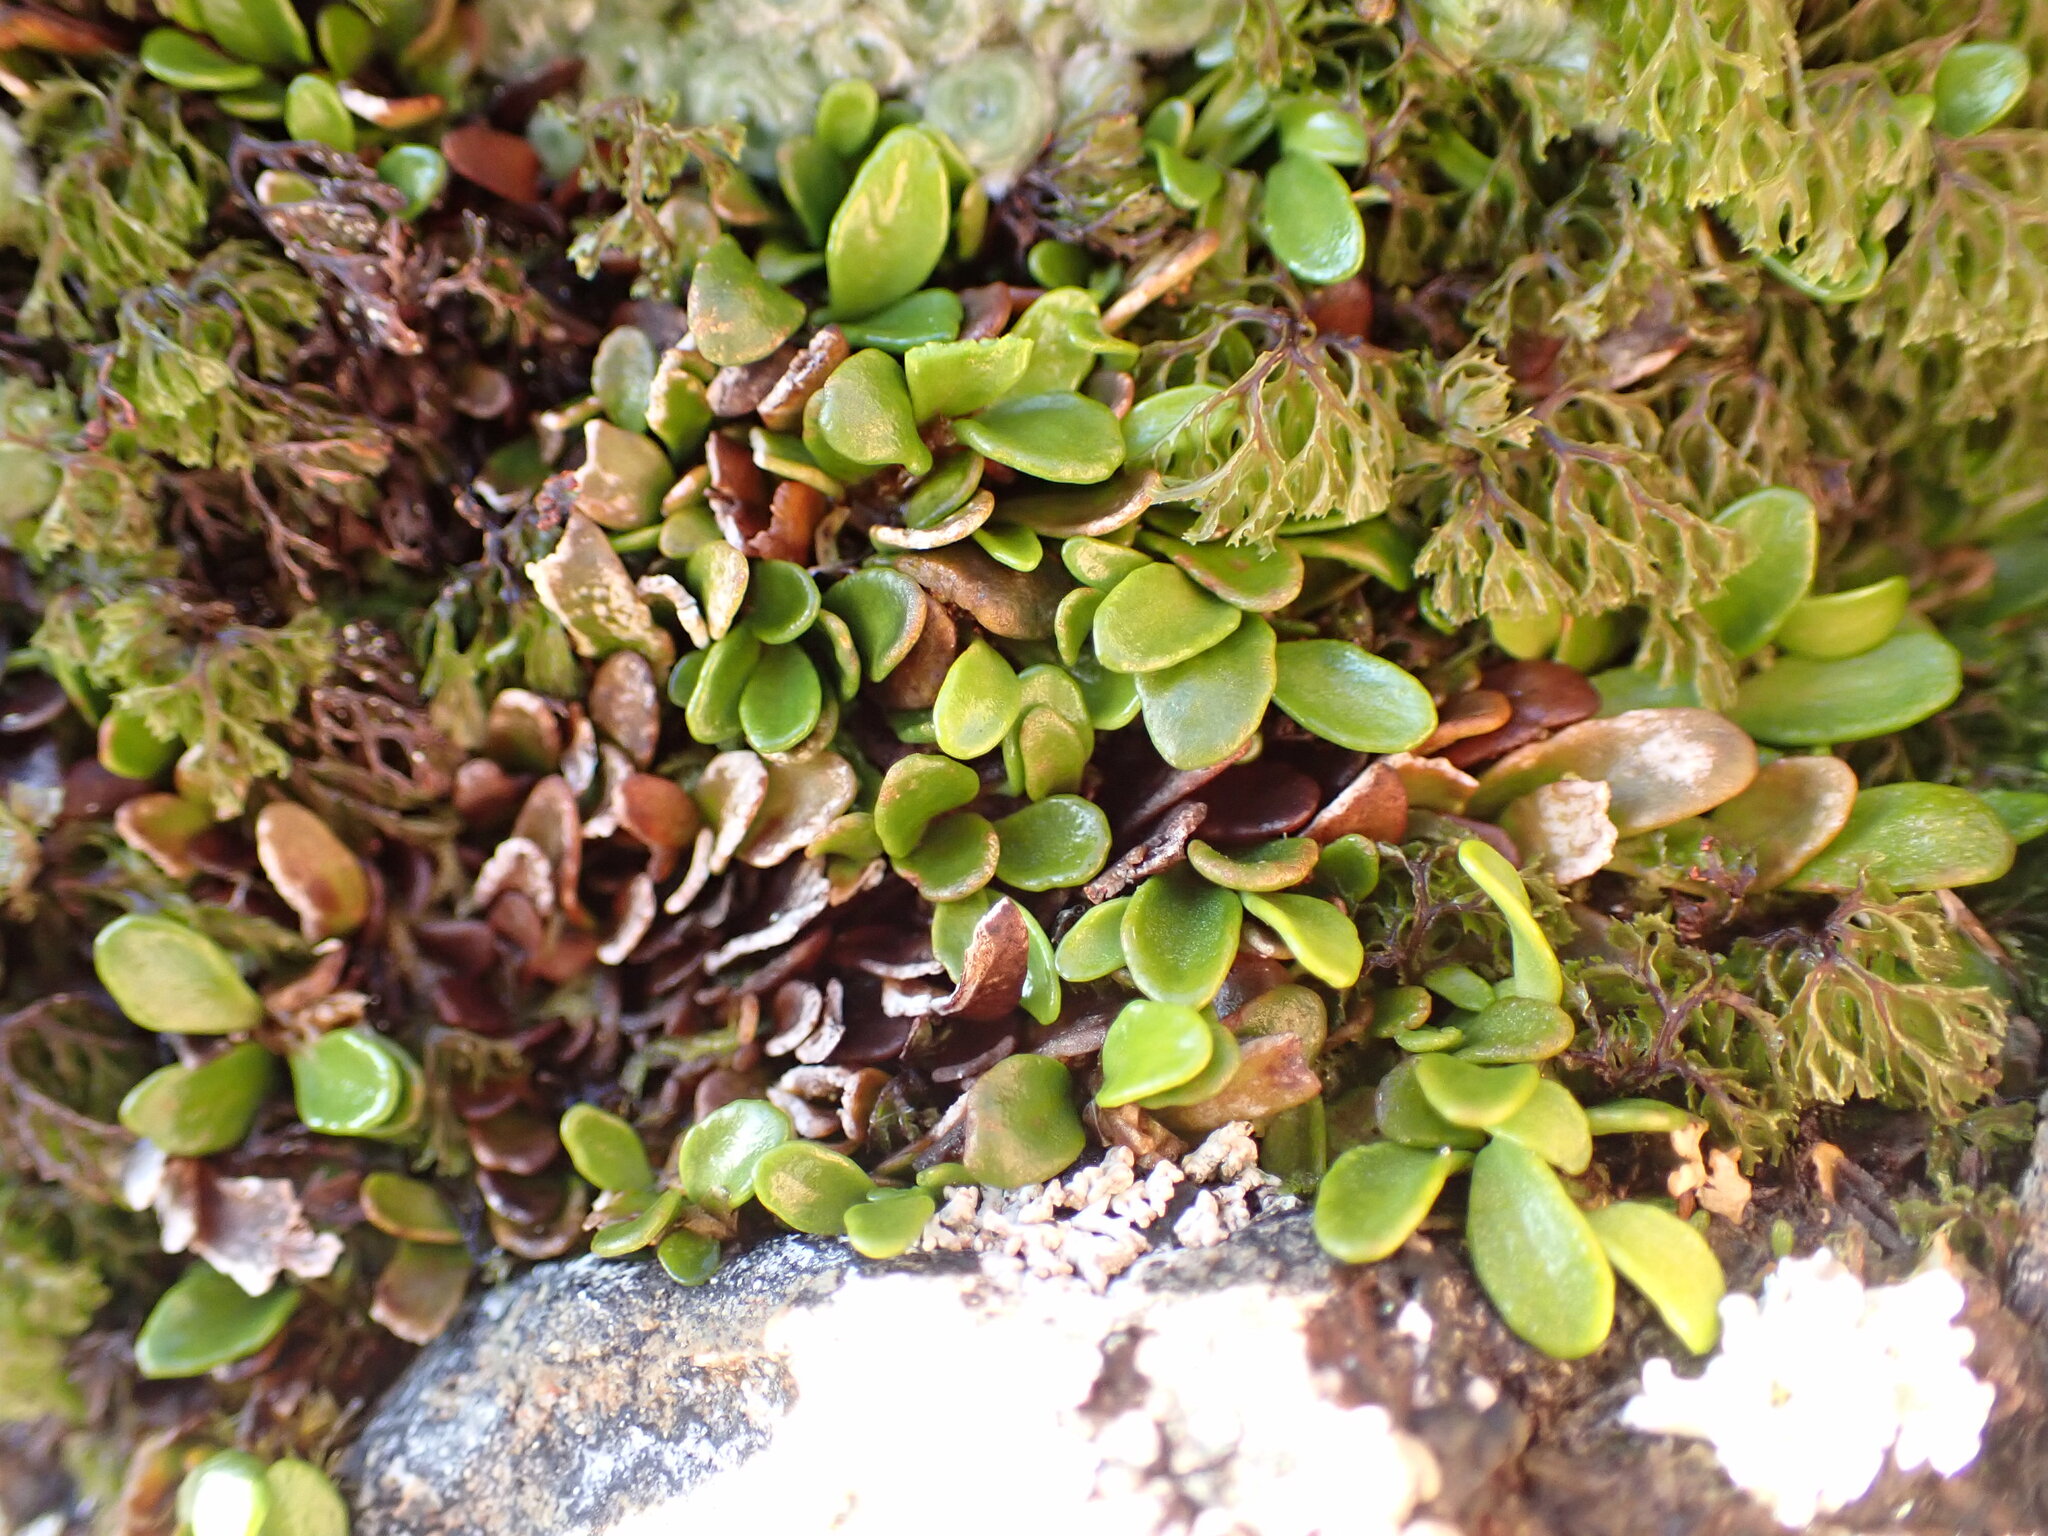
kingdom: Plantae
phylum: Tracheophyta
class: Polypodiopsida
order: Polypodiales
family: Polypodiaceae
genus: Notogrammitis
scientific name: Notogrammitis crassior
